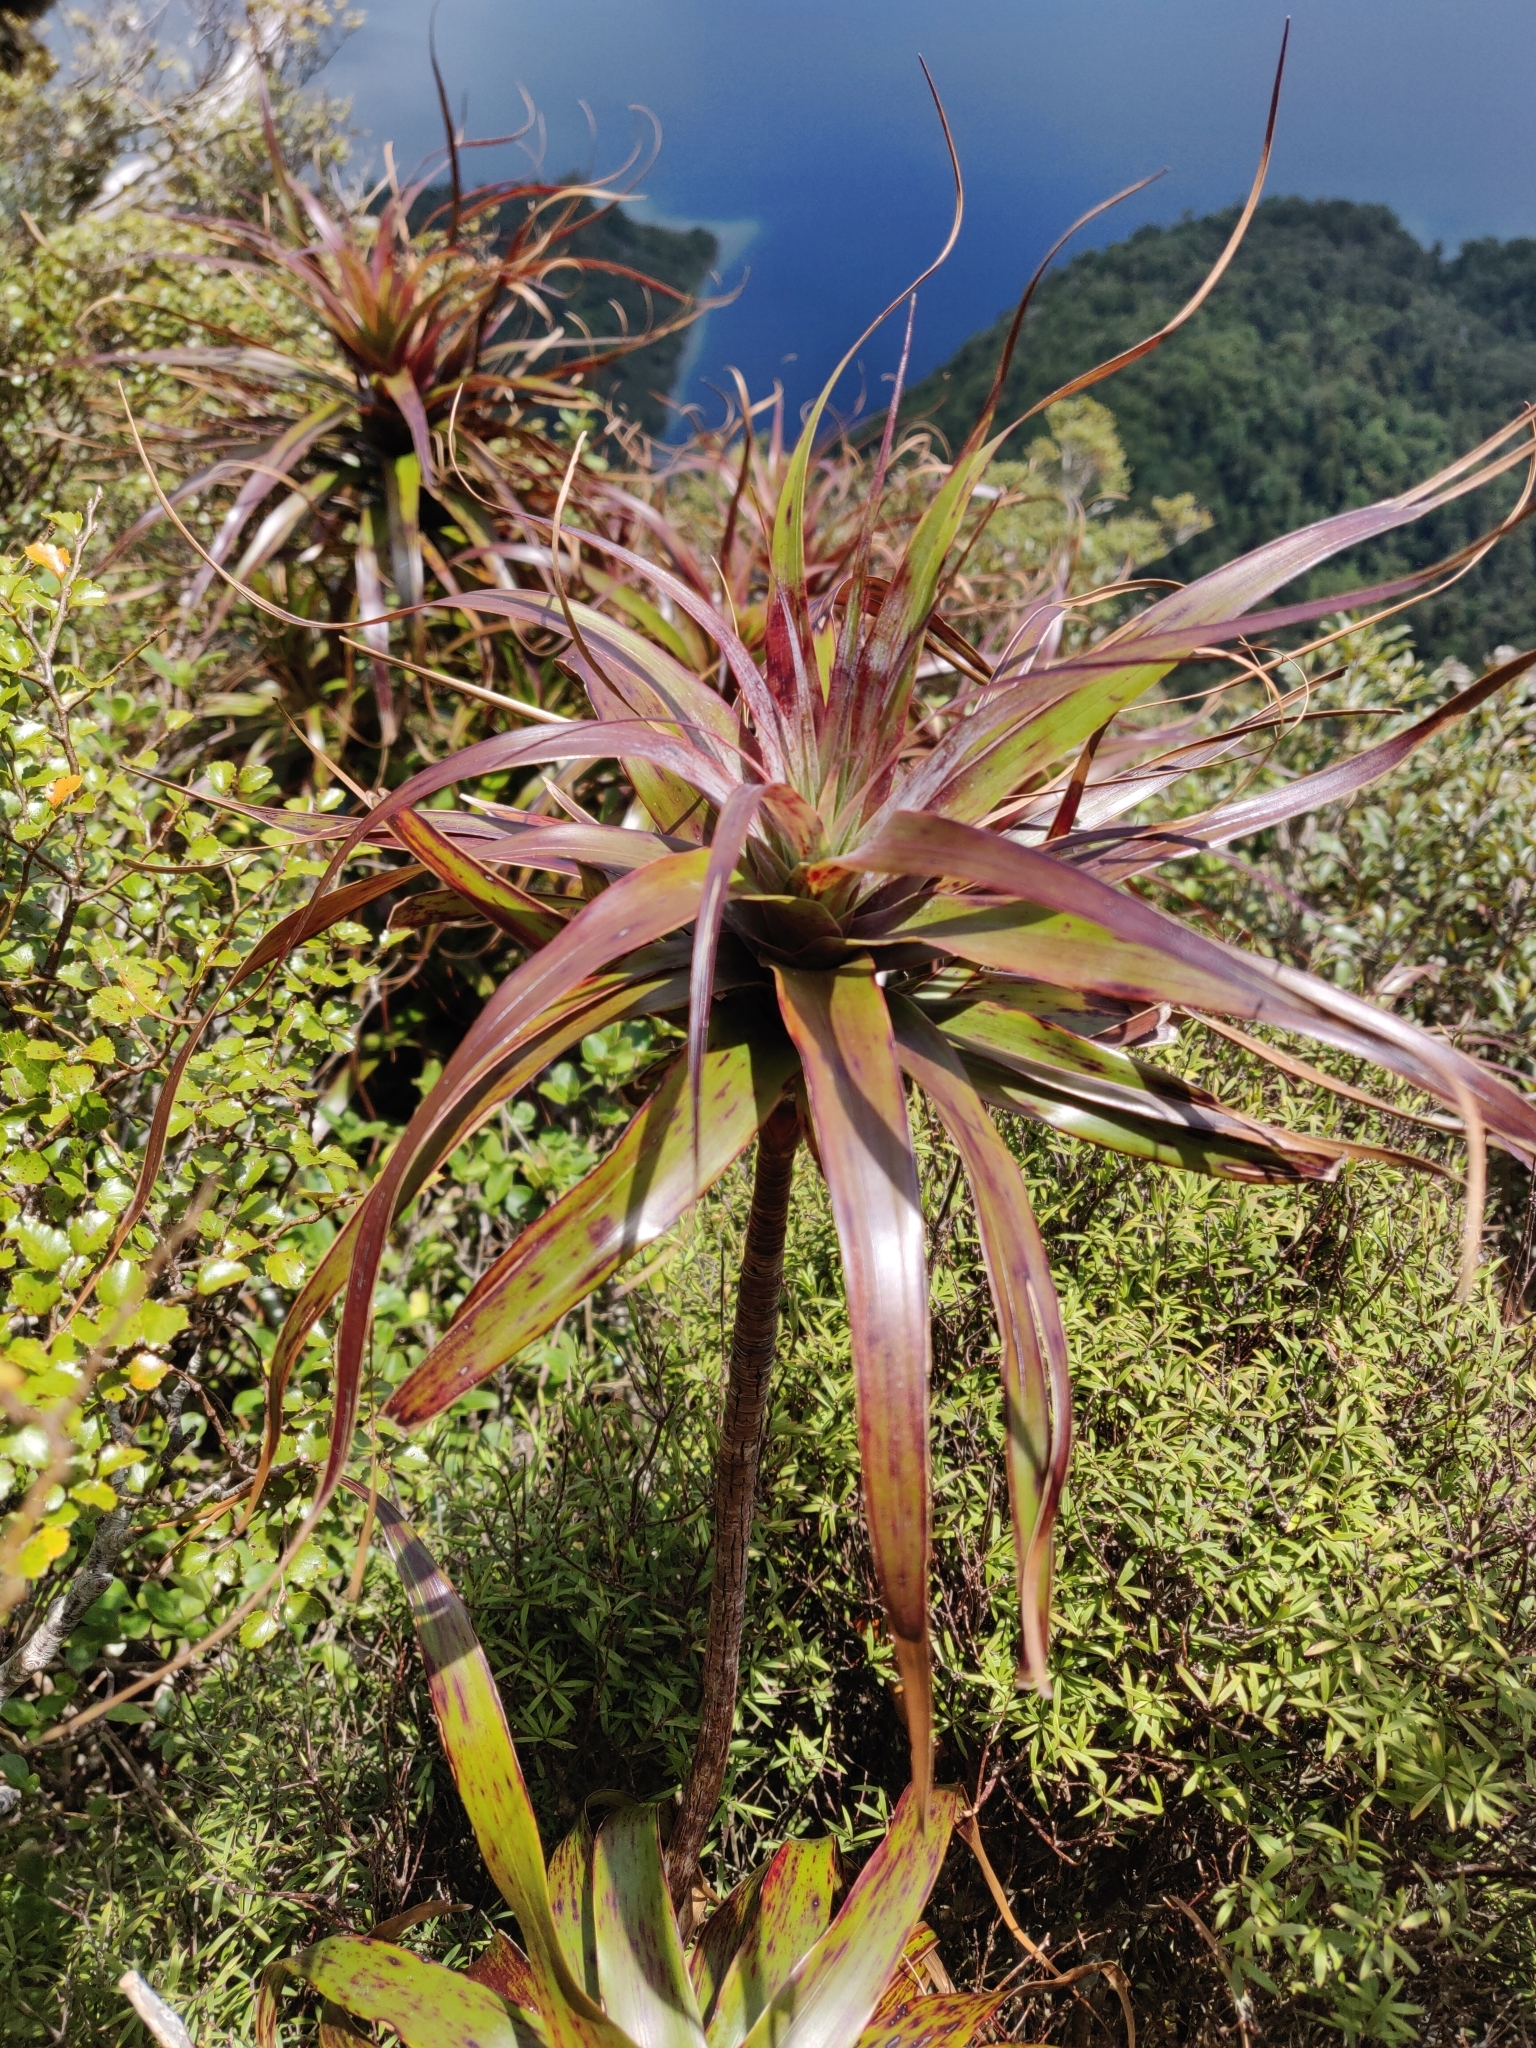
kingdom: Plantae
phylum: Tracheophyta
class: Magnoliopsida
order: Ericales
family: Ericaceae
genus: Dracophyllum
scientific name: Dracophyllum traversii
